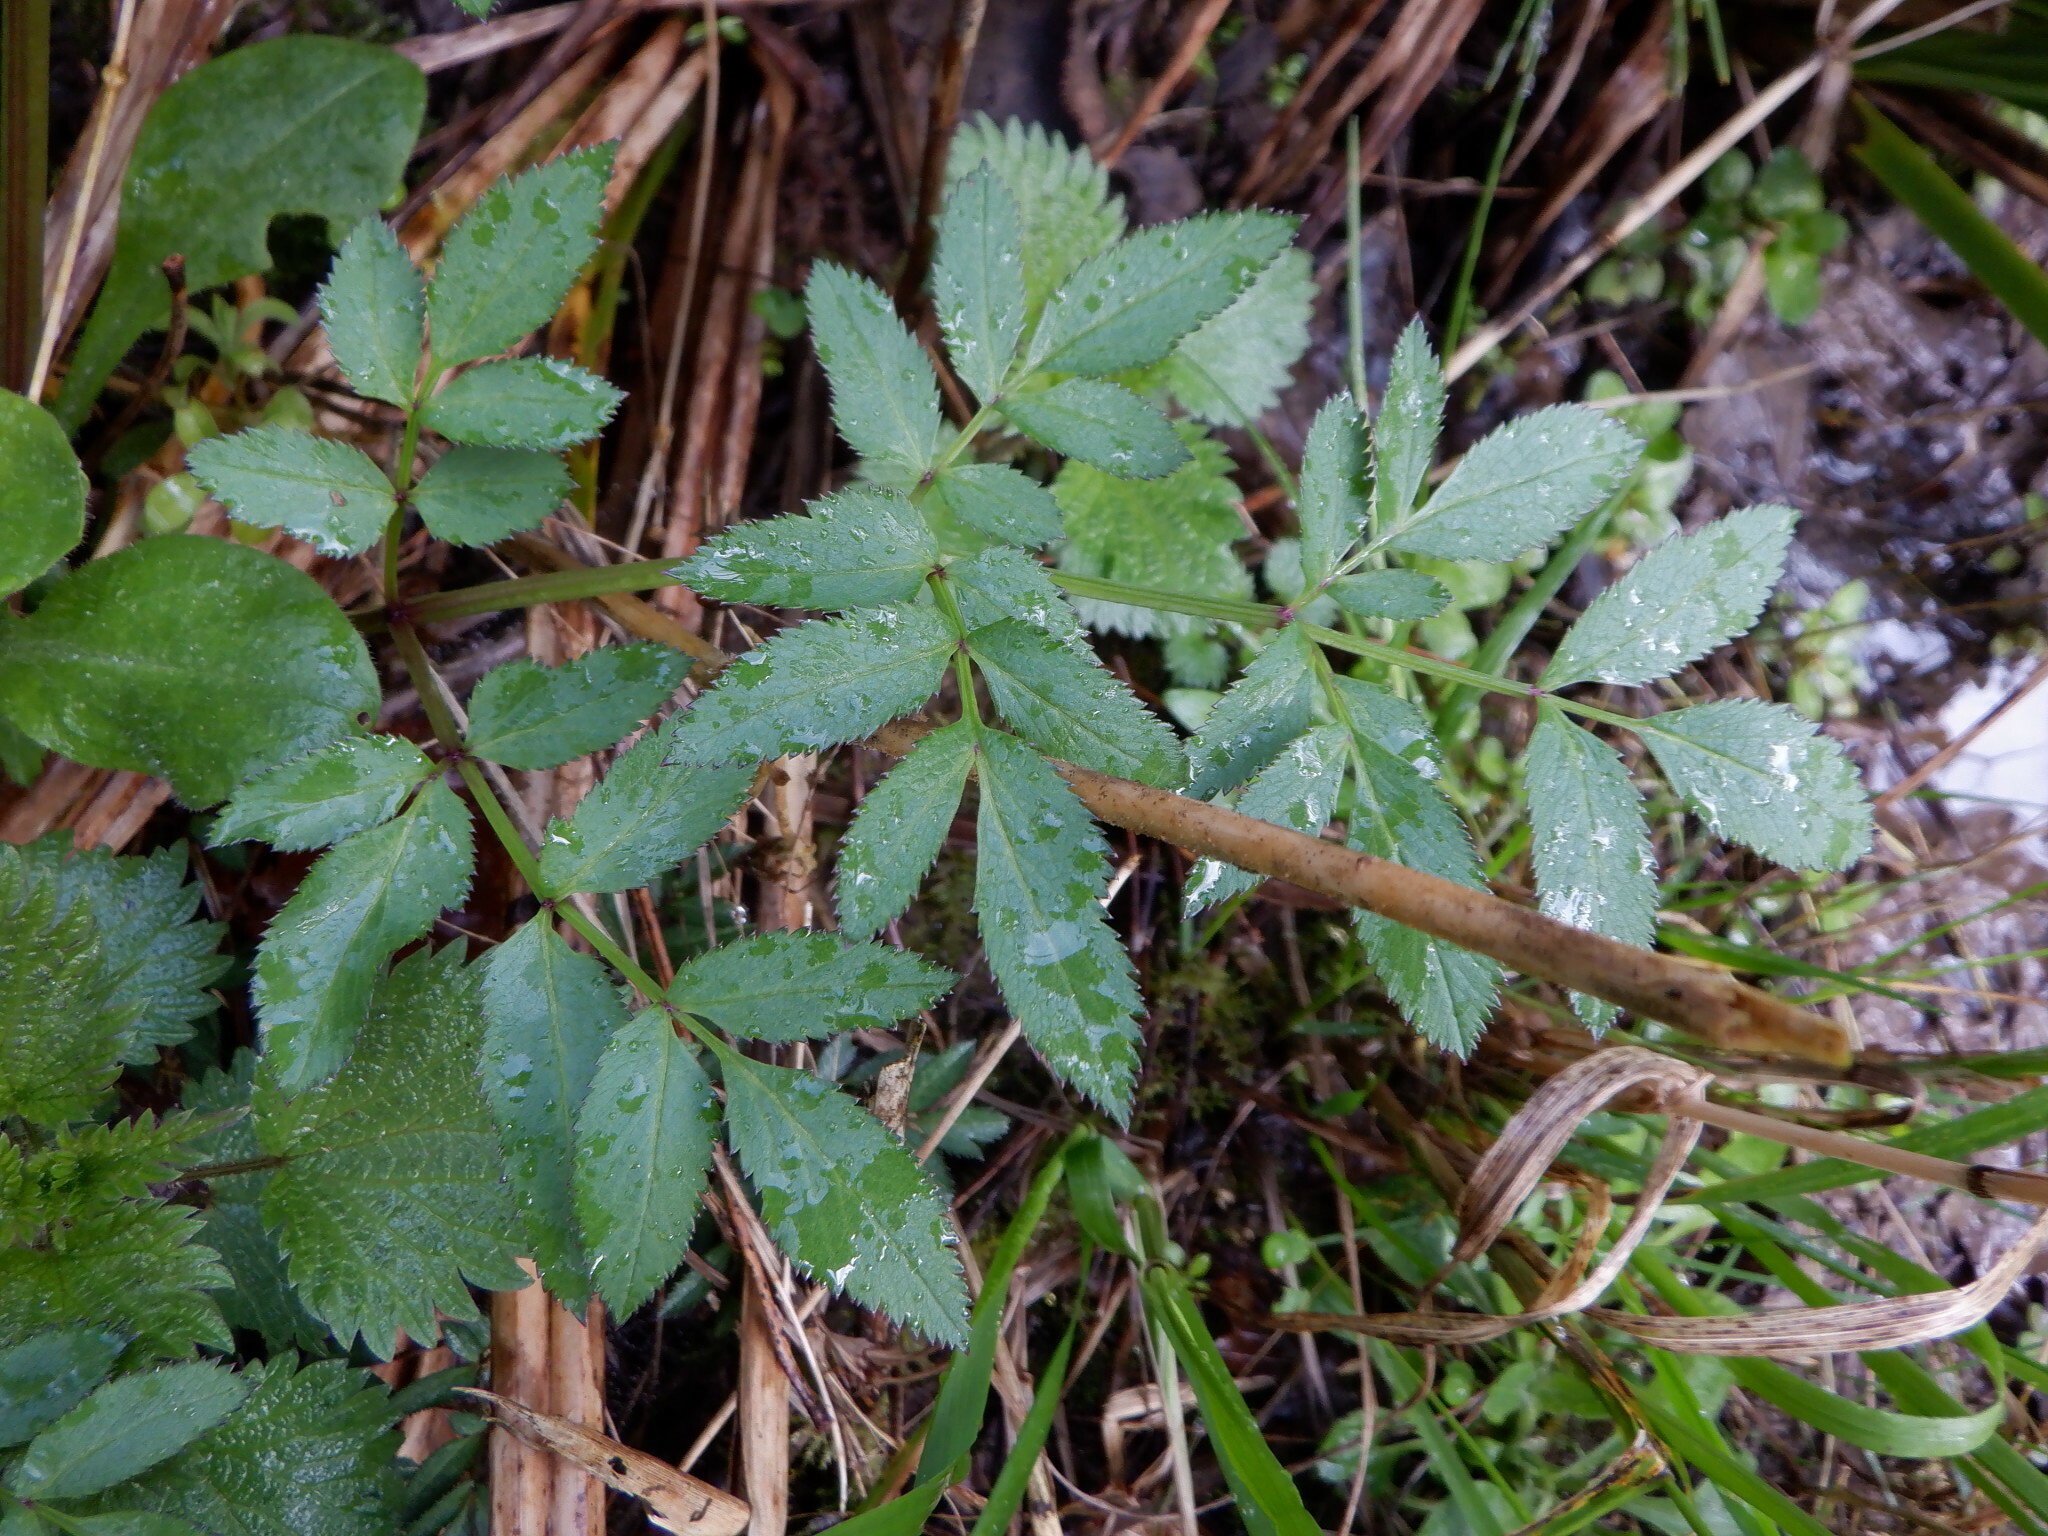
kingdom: Plantae
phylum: Tracheophyta
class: Magnoliopsida
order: Apiales
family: Apiaceae
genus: Angelica
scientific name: Angelica sylvestris
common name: Wild angelica
